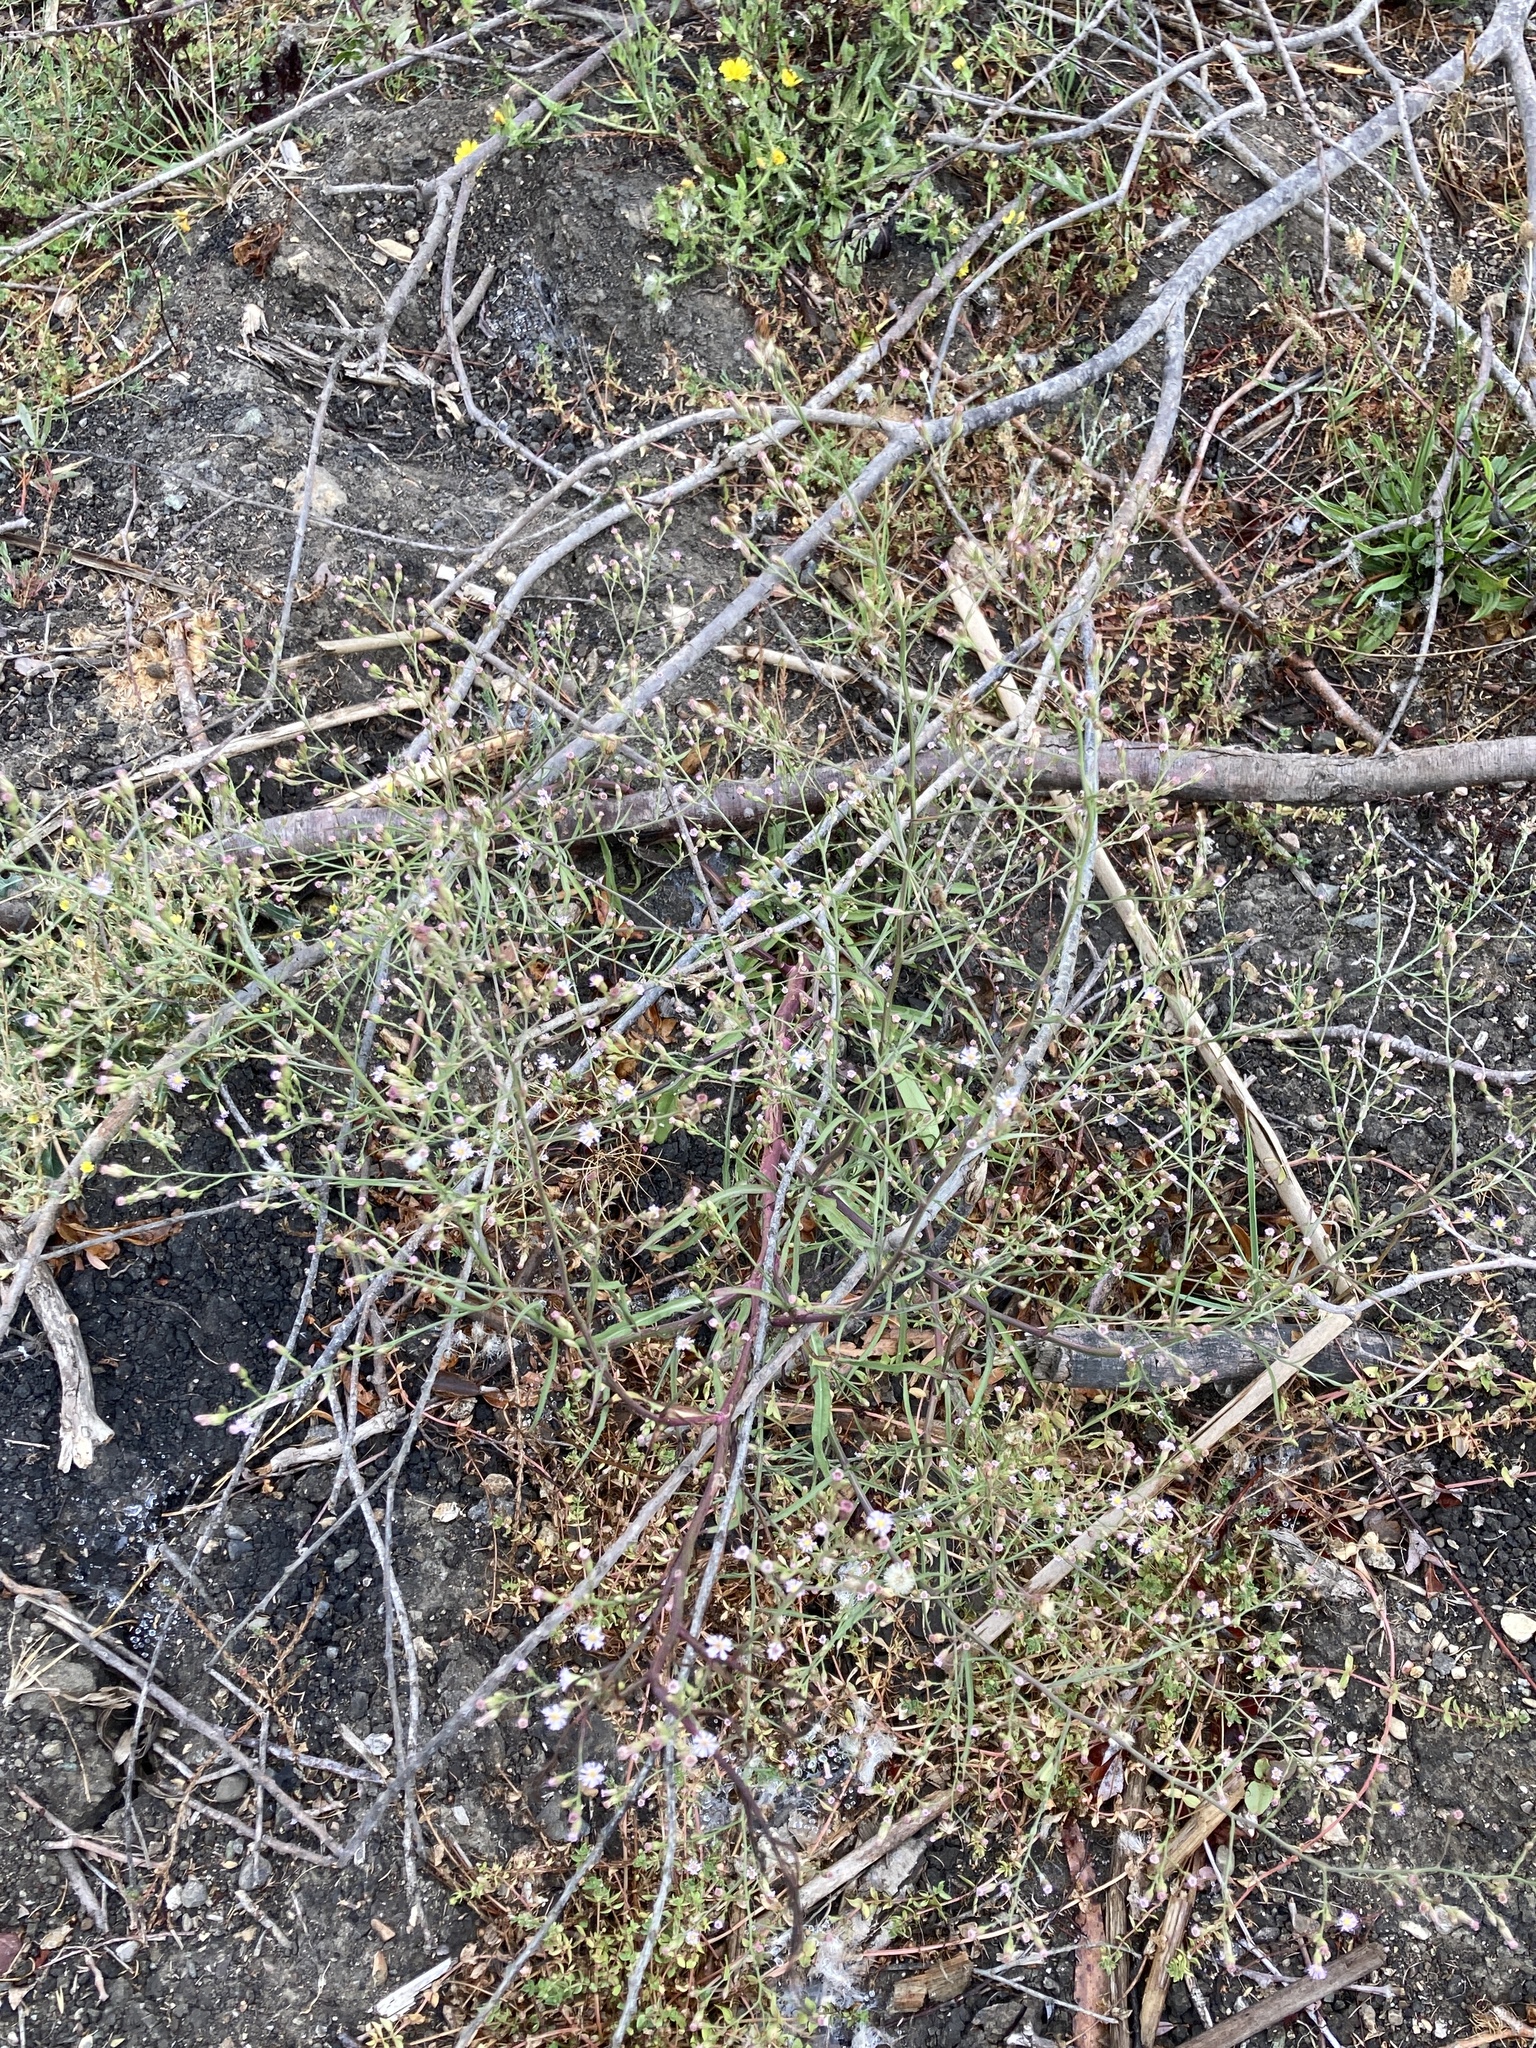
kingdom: Plantae
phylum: Tracheophyta
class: Magnoliopsida
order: Asterales
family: Asteraceae
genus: Symphyotrichum
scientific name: Symphyotrichum subulatum
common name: Annual saltmarsh aster
